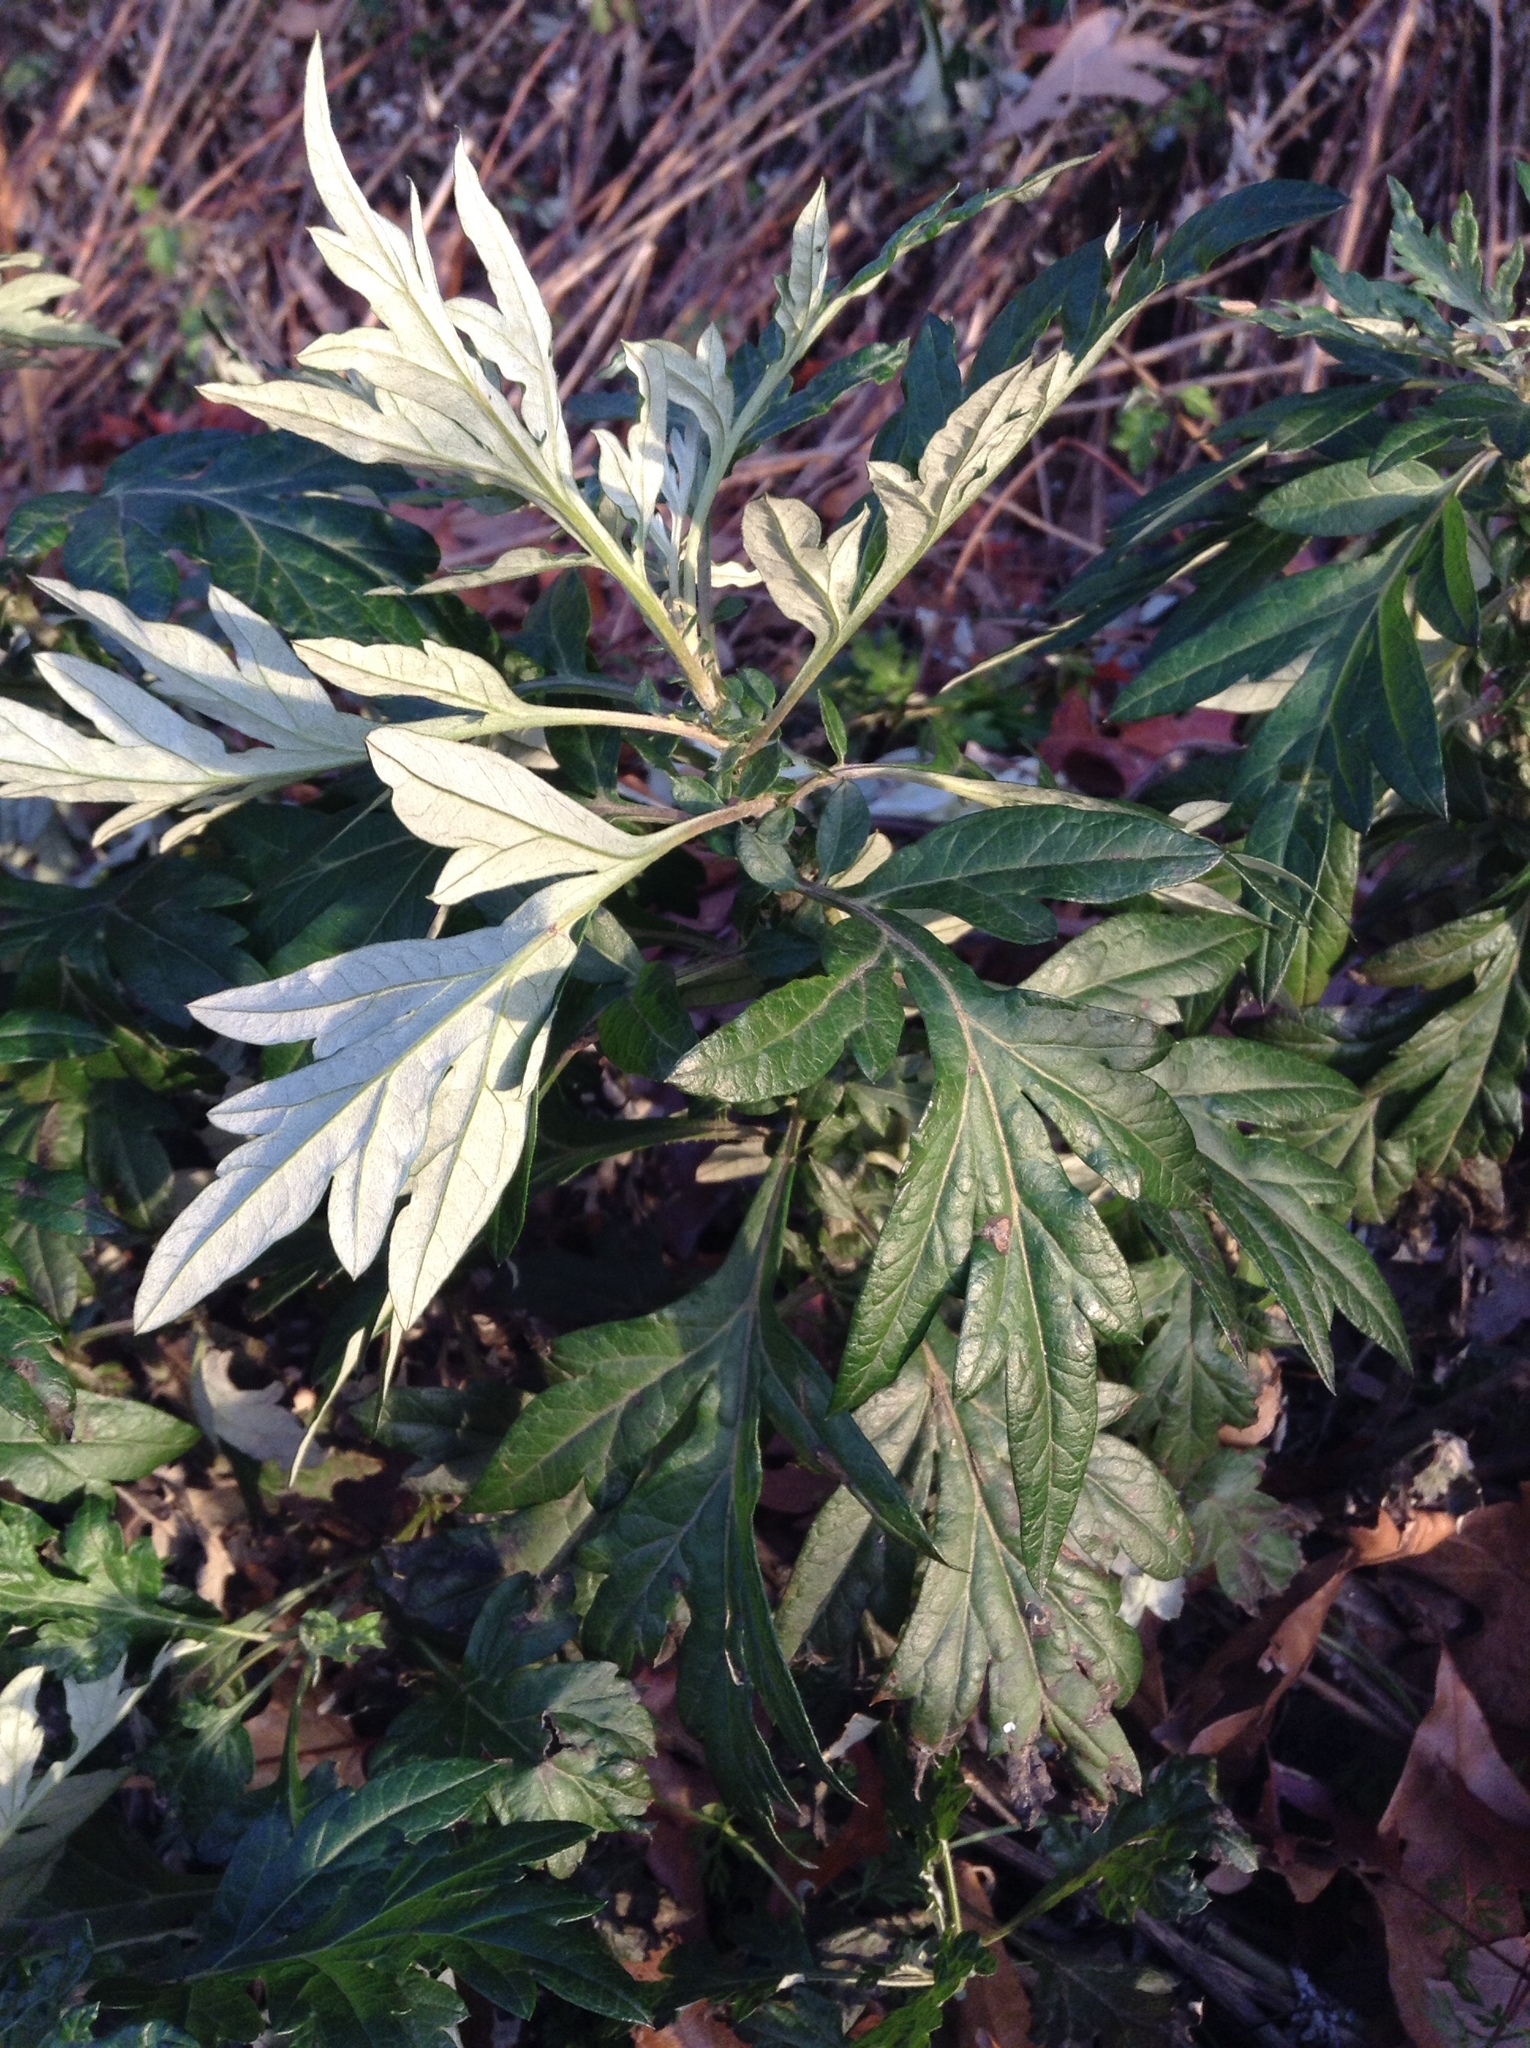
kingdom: Plantae
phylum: Tracheophyta
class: Magnoliopsida
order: Asterales
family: Asteraceae
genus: Artemisia
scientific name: Artemisia vulgaris
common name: Mugwort
